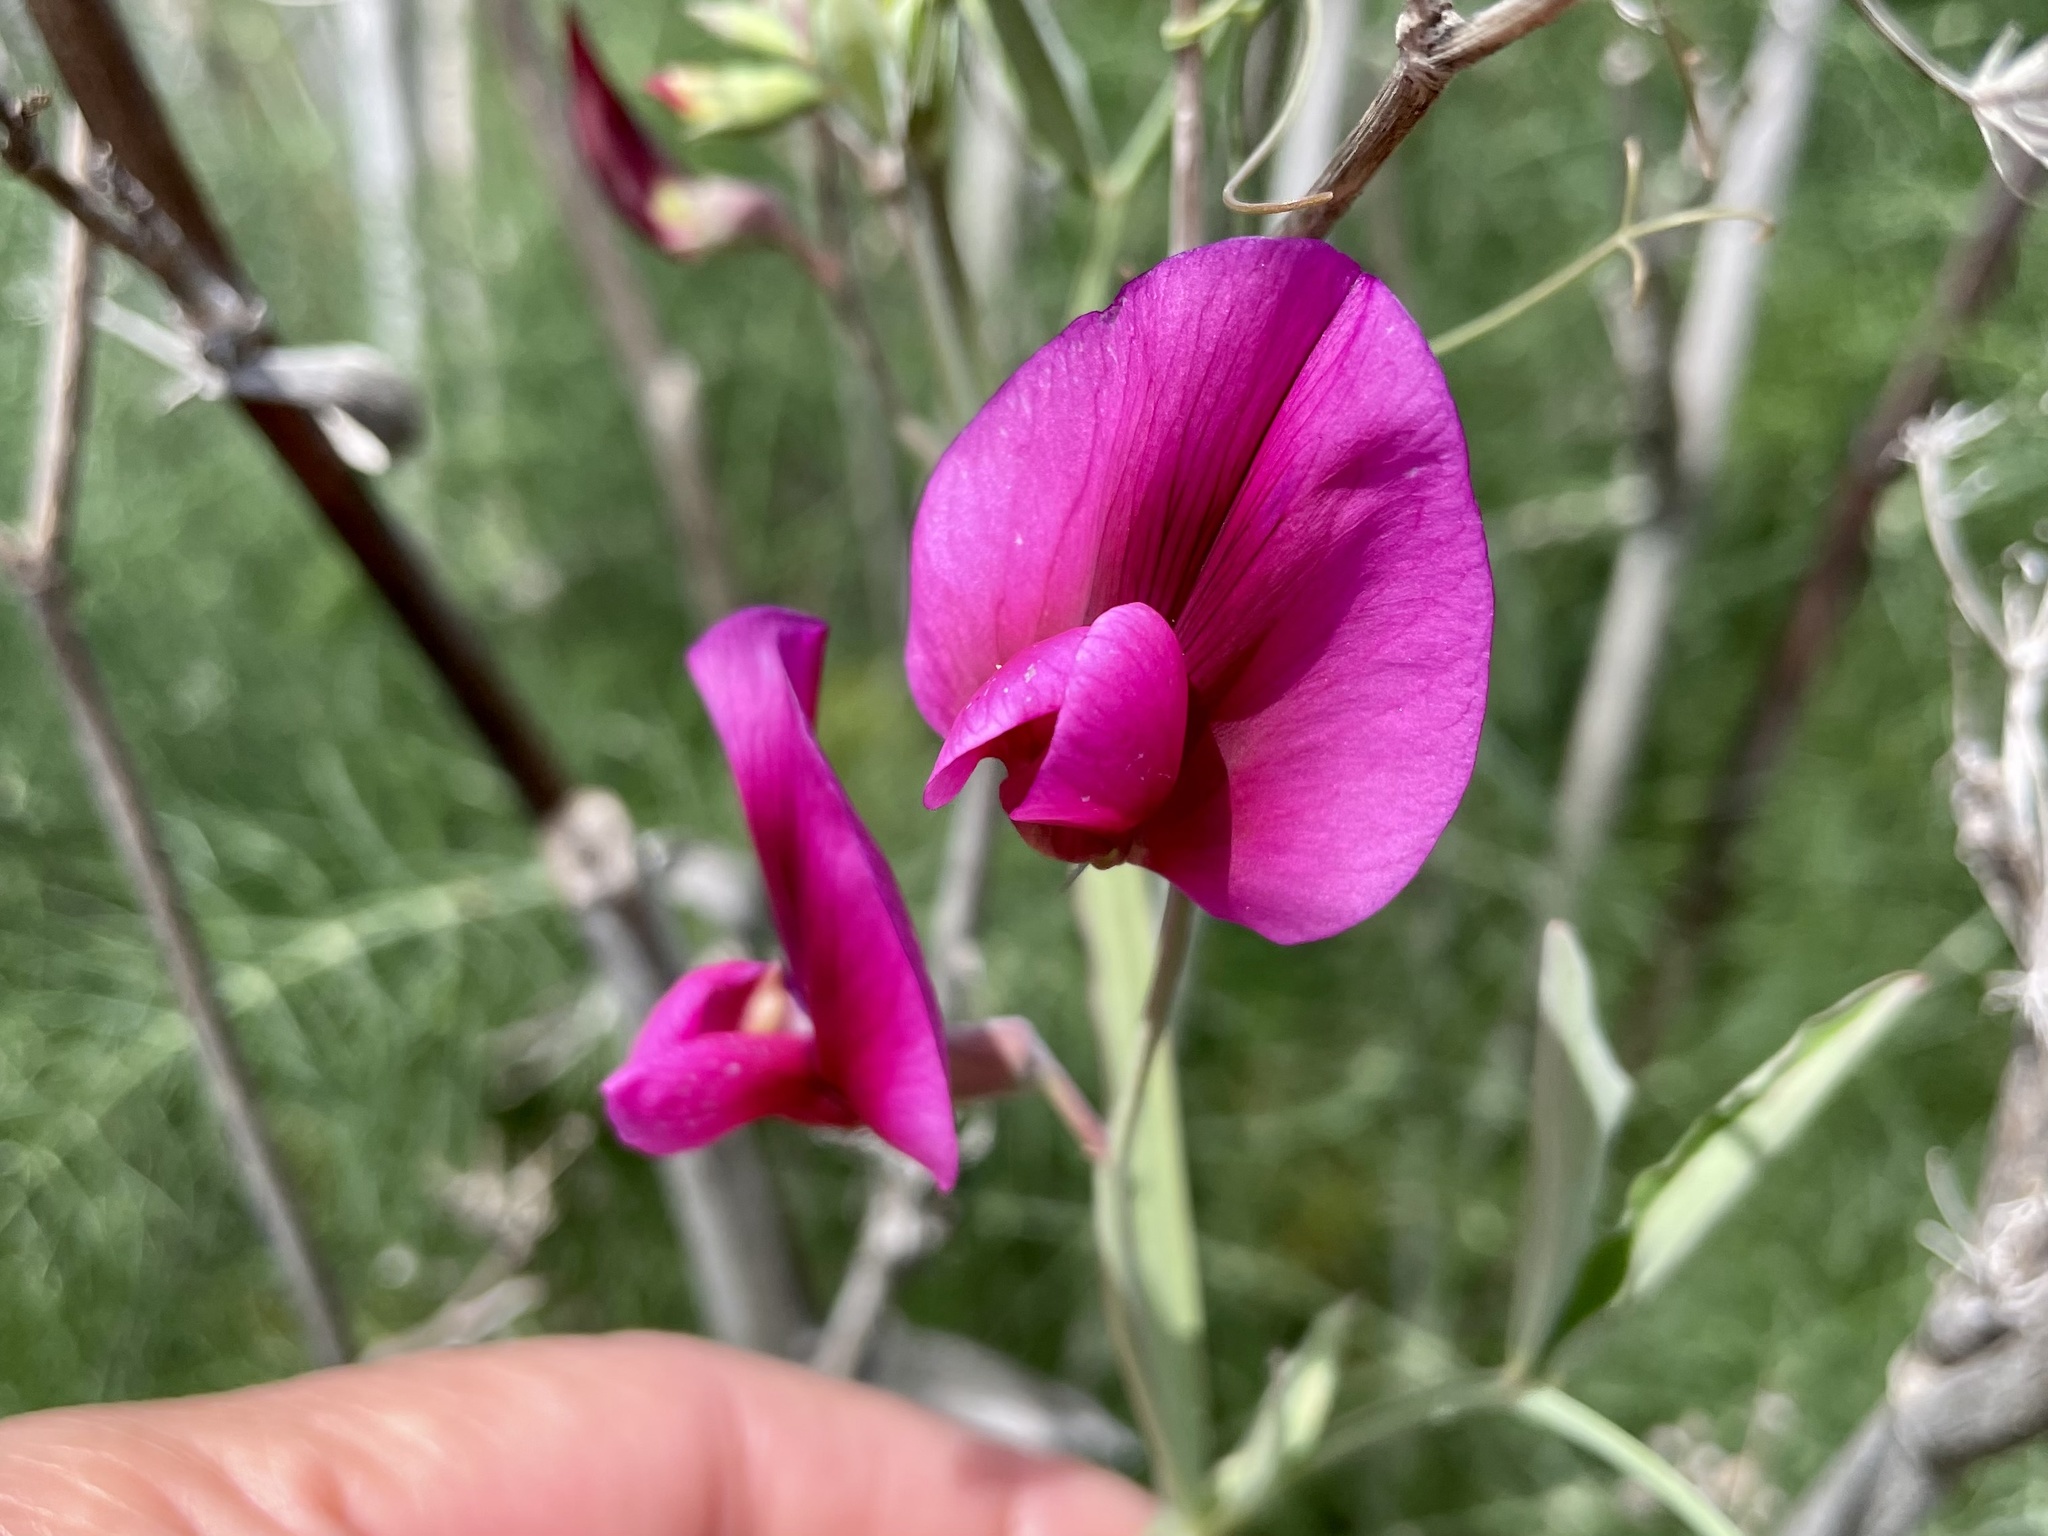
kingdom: Plantae
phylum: Tracheophyta
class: Magnoliopsida
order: Fabales
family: Fabaceae
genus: Lathyrus
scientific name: Lathyrus tingitanus
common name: Tangier pea
